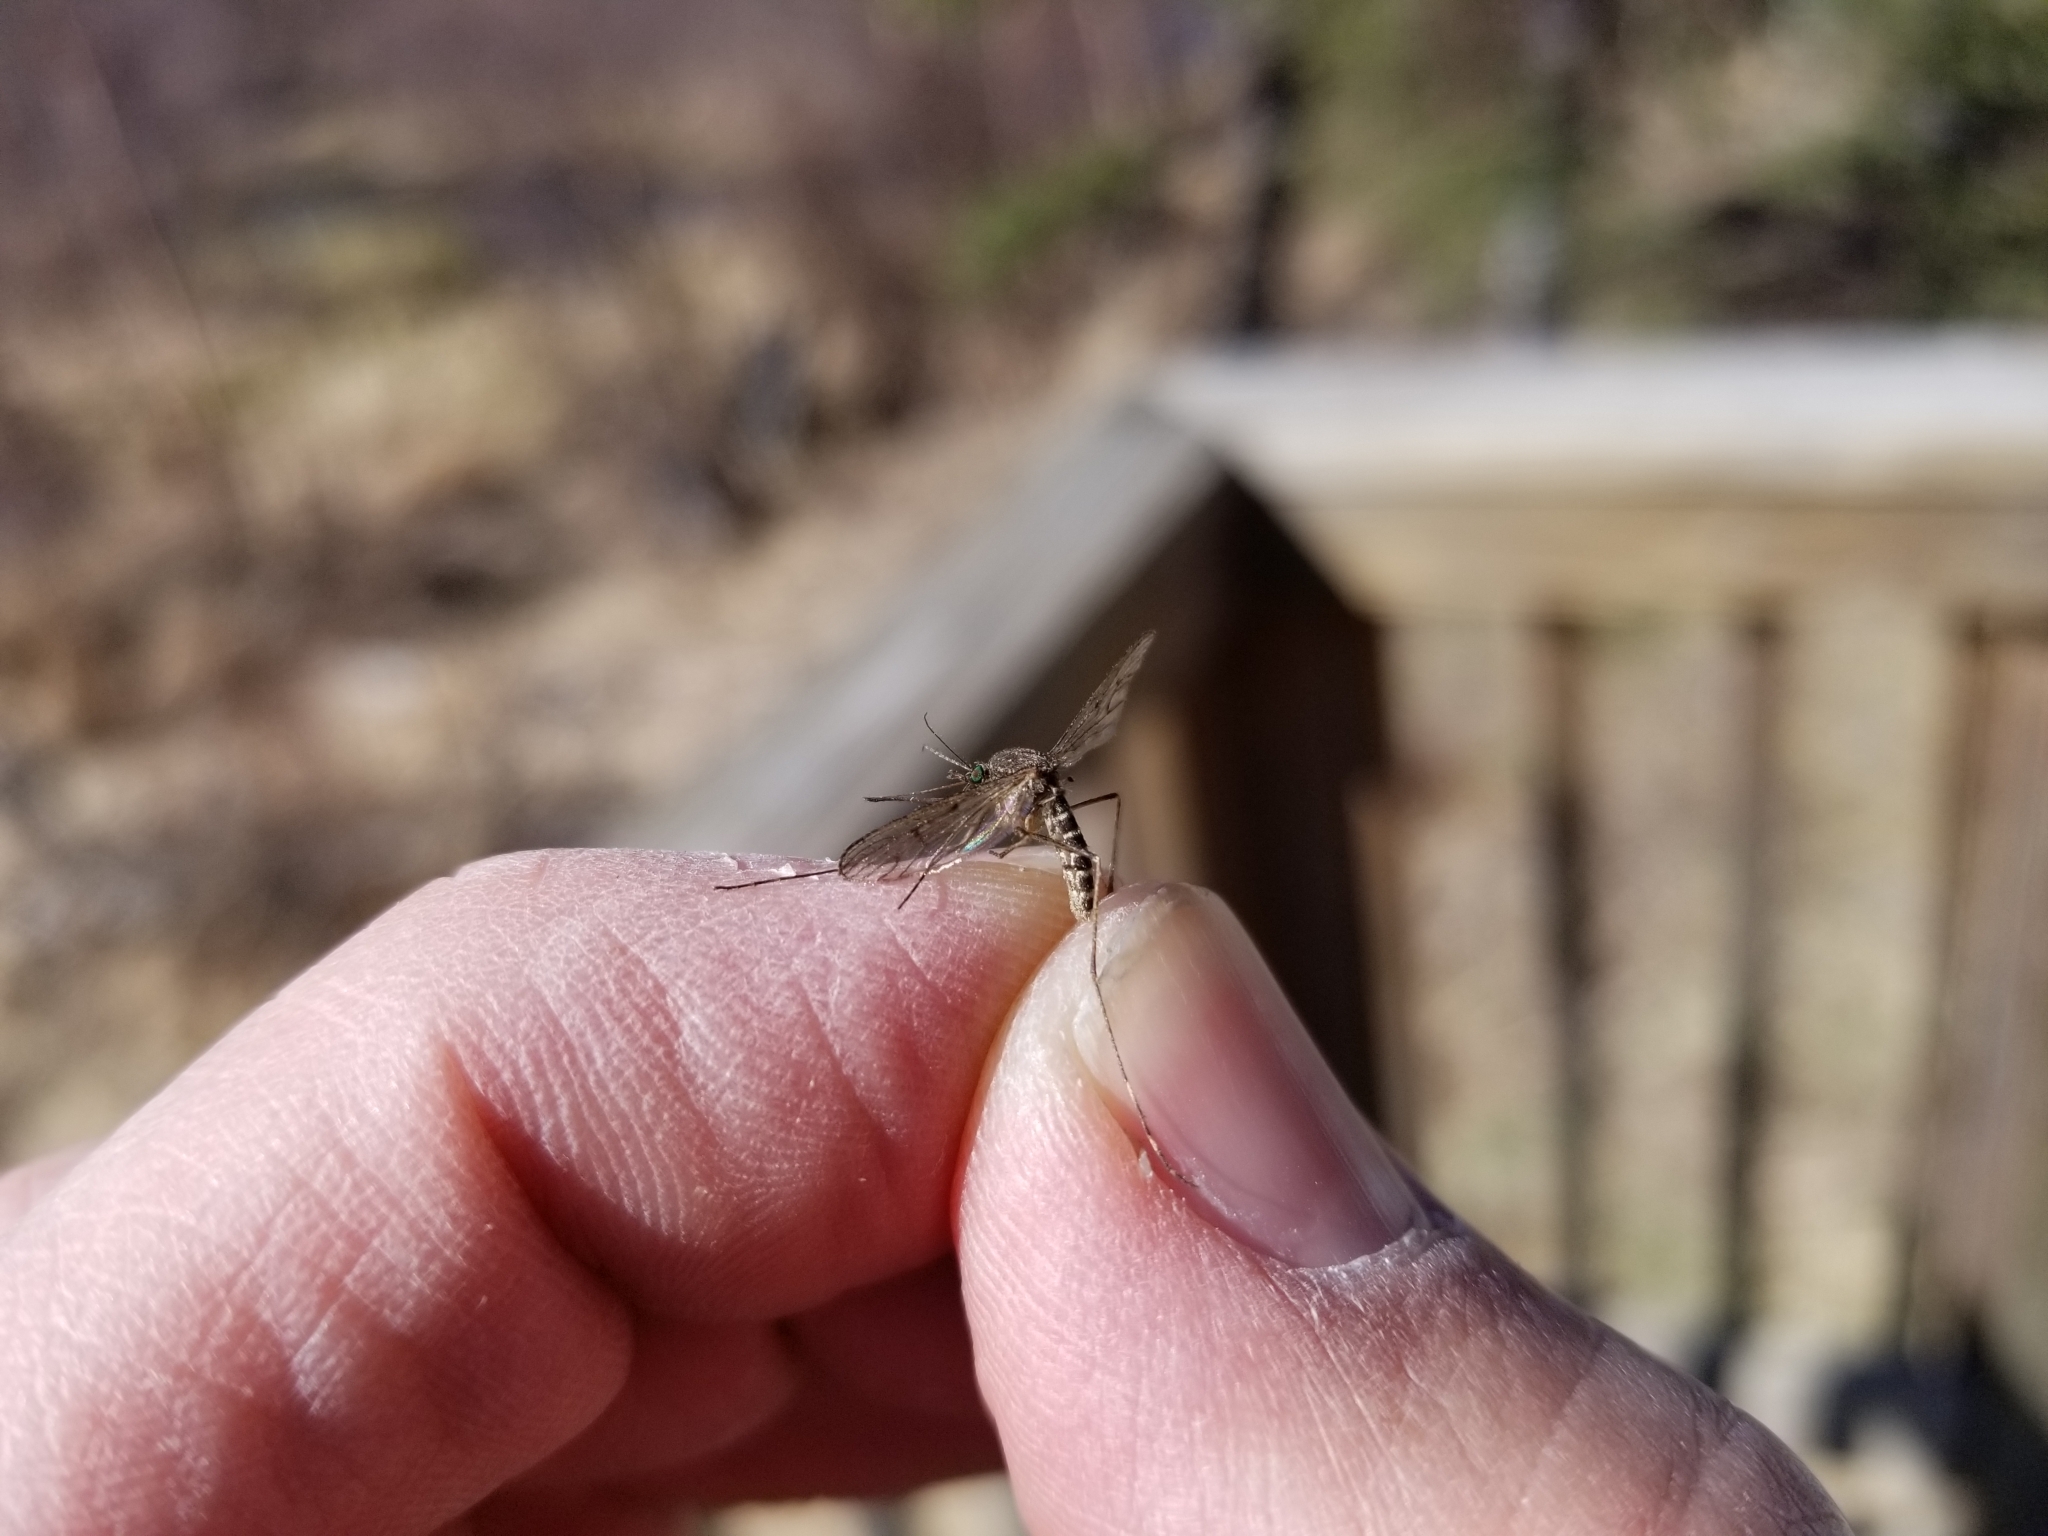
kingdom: Animalia
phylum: Arthropoda
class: Insecta
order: Diptera
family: Culicidae
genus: Culiseta
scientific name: Culiseta alaskaensis
